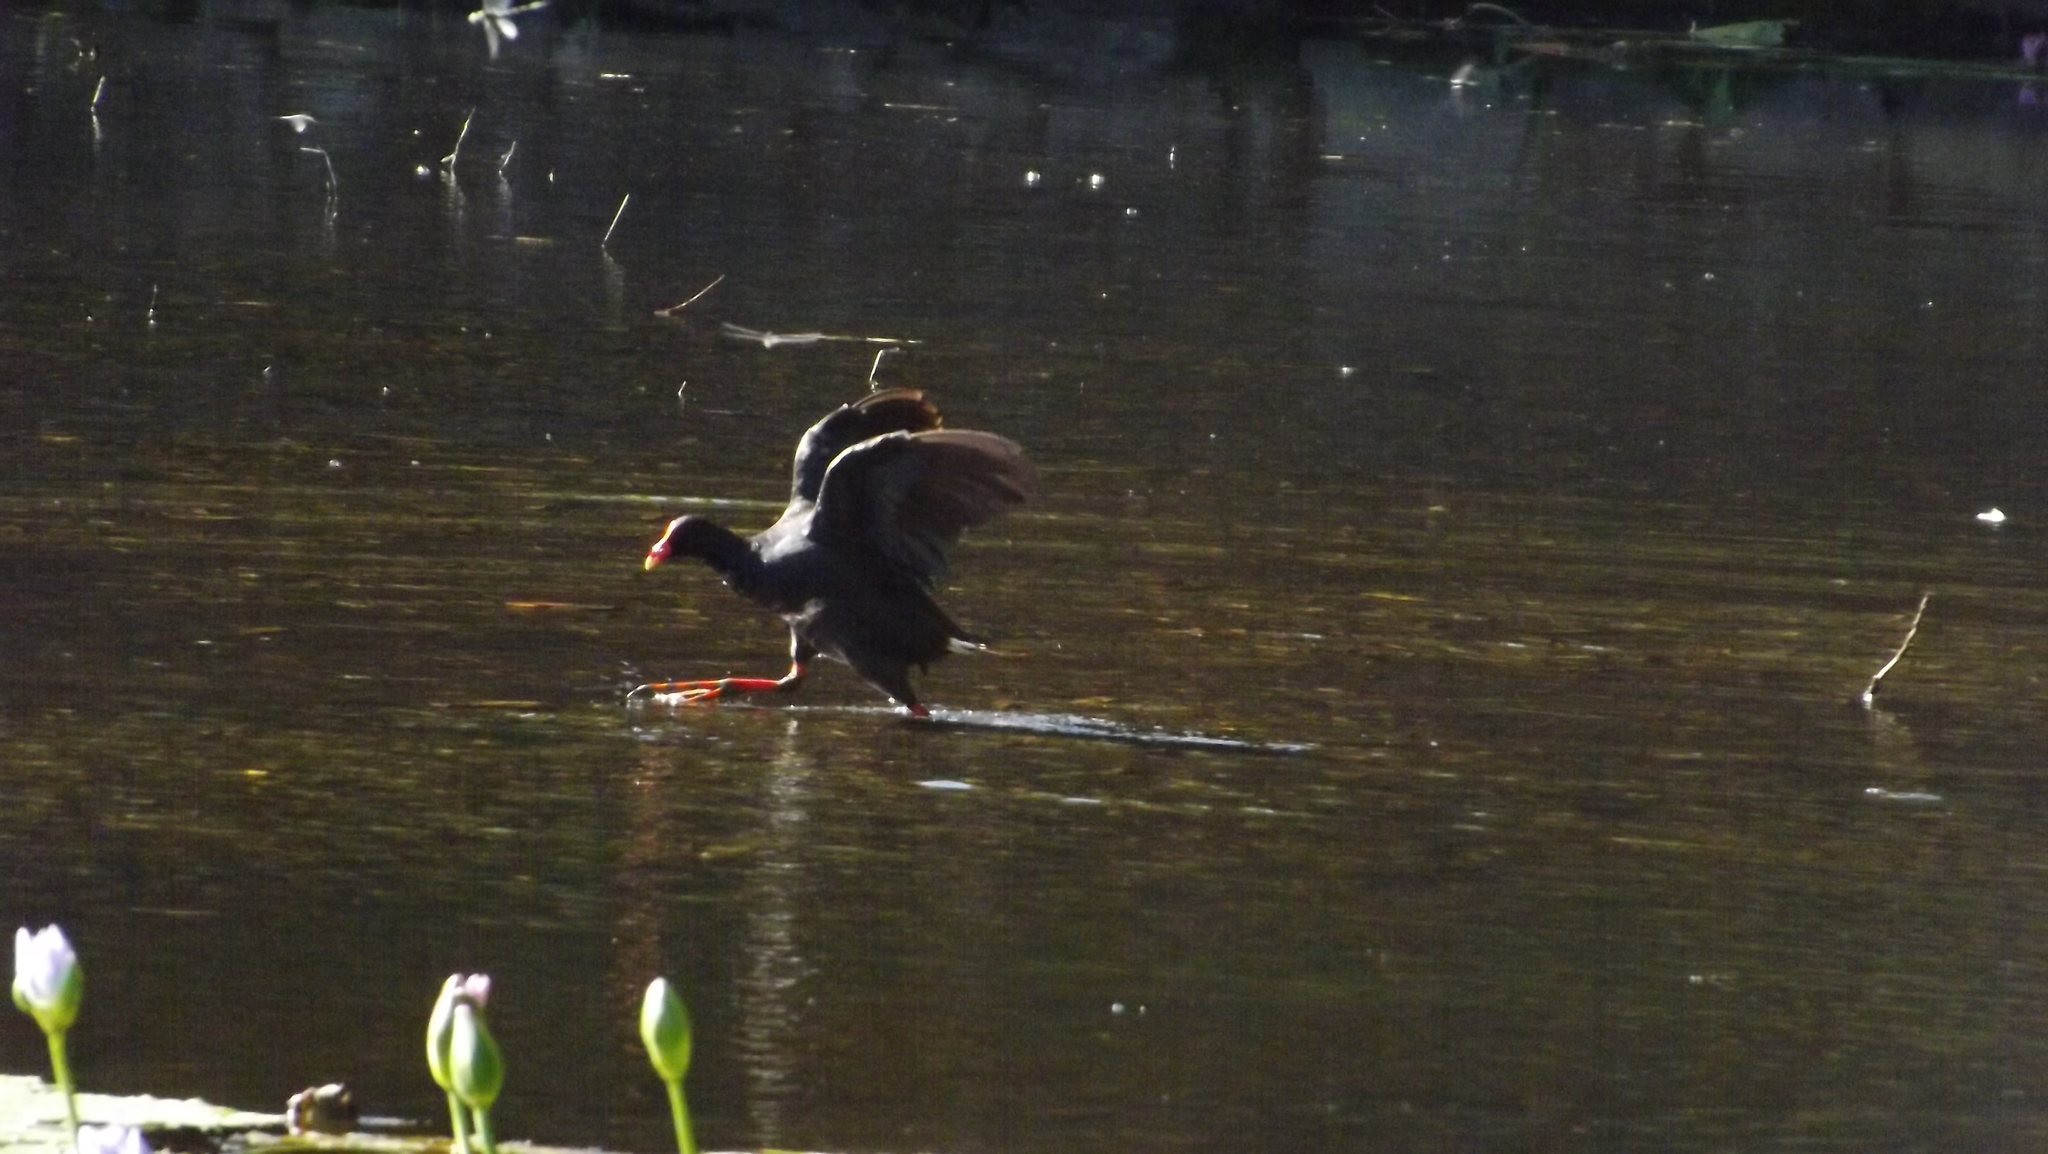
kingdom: Animalia
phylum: Chordata
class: Aves
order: Gruiformes
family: Rallidae
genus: Gallinula
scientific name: Gallinula tenebrosa
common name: Dusky moorhen
